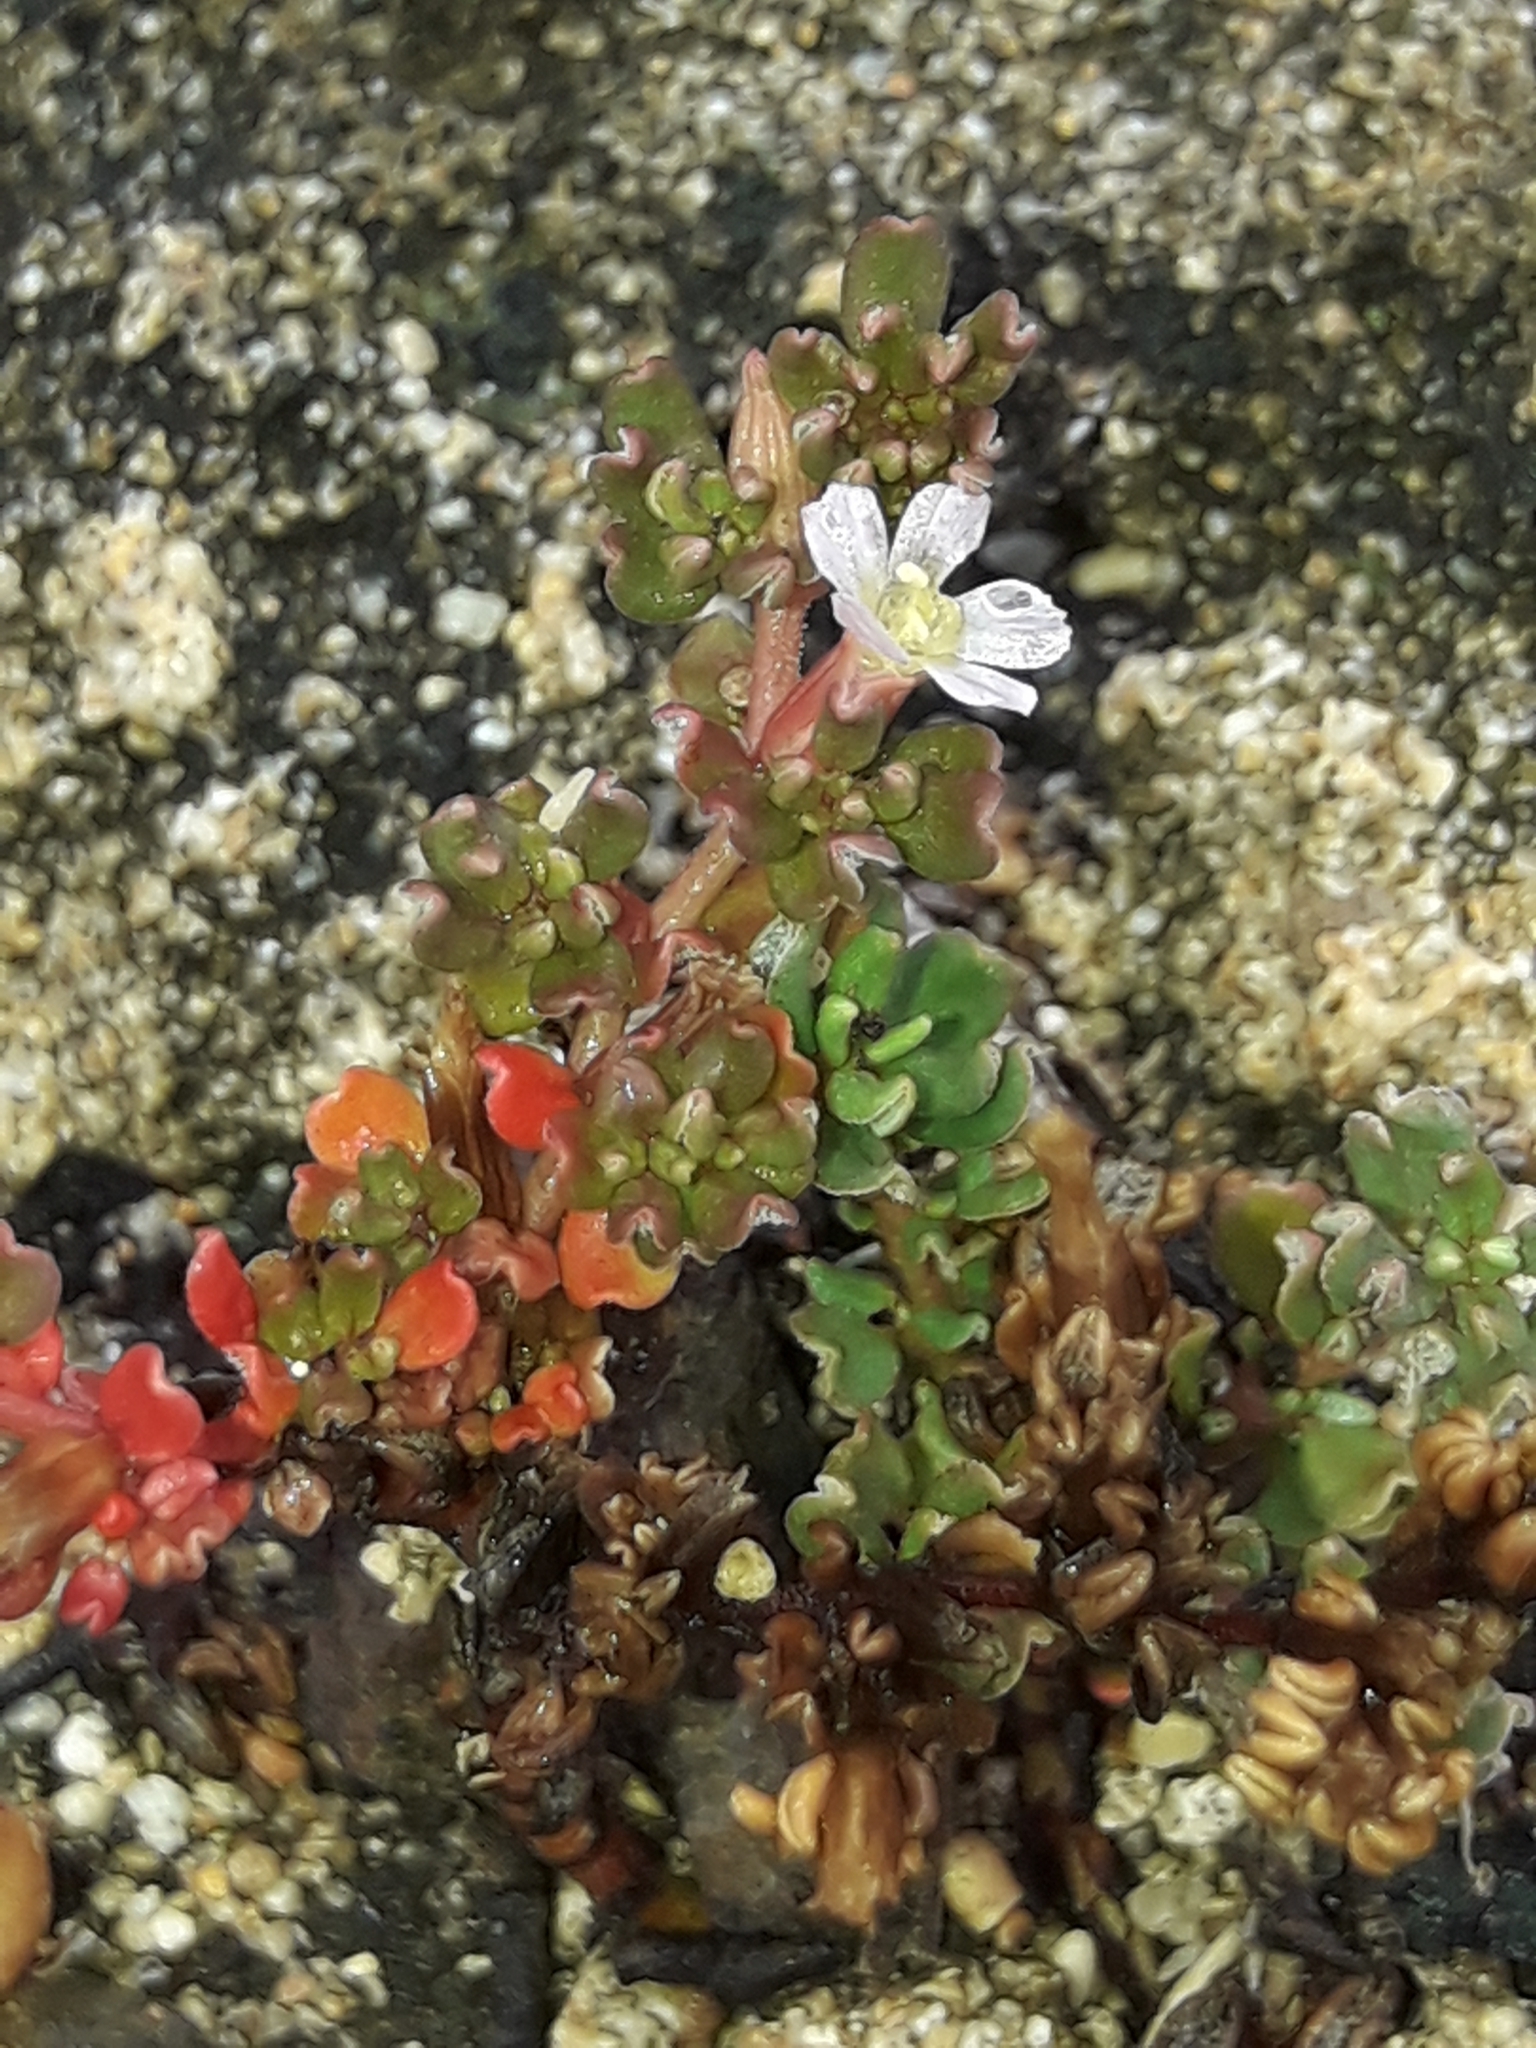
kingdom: Plantae
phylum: Tracheophyta
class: Magnoliopsida
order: Caryophyllales
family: Frankeniaceae
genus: Frankenia
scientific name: Frankenia pulverulenta
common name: European seaheath
